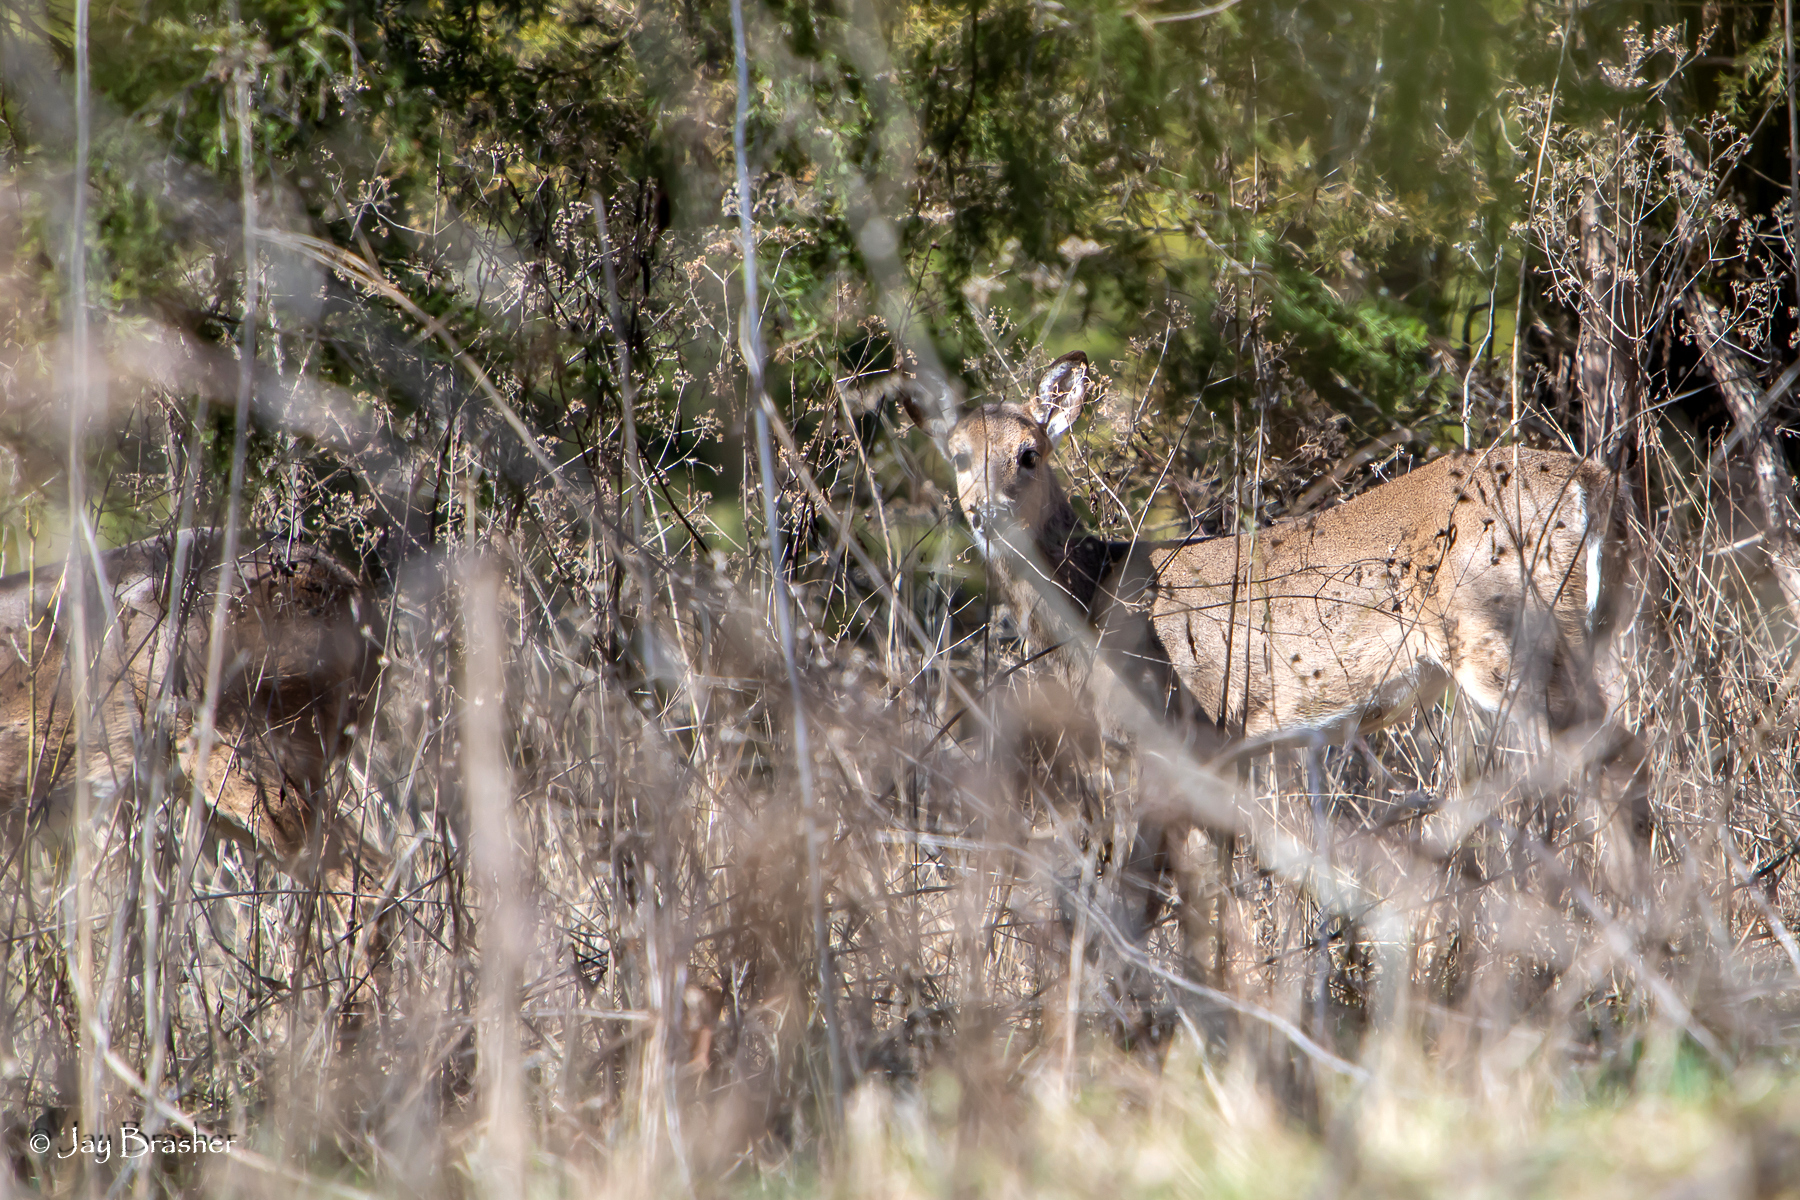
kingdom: Animalia
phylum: Chordata
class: Mammalia
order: Artiodactyla
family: Cervidae
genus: Odocoileus
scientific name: Odocoileus virginianus
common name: White-tailed deer
